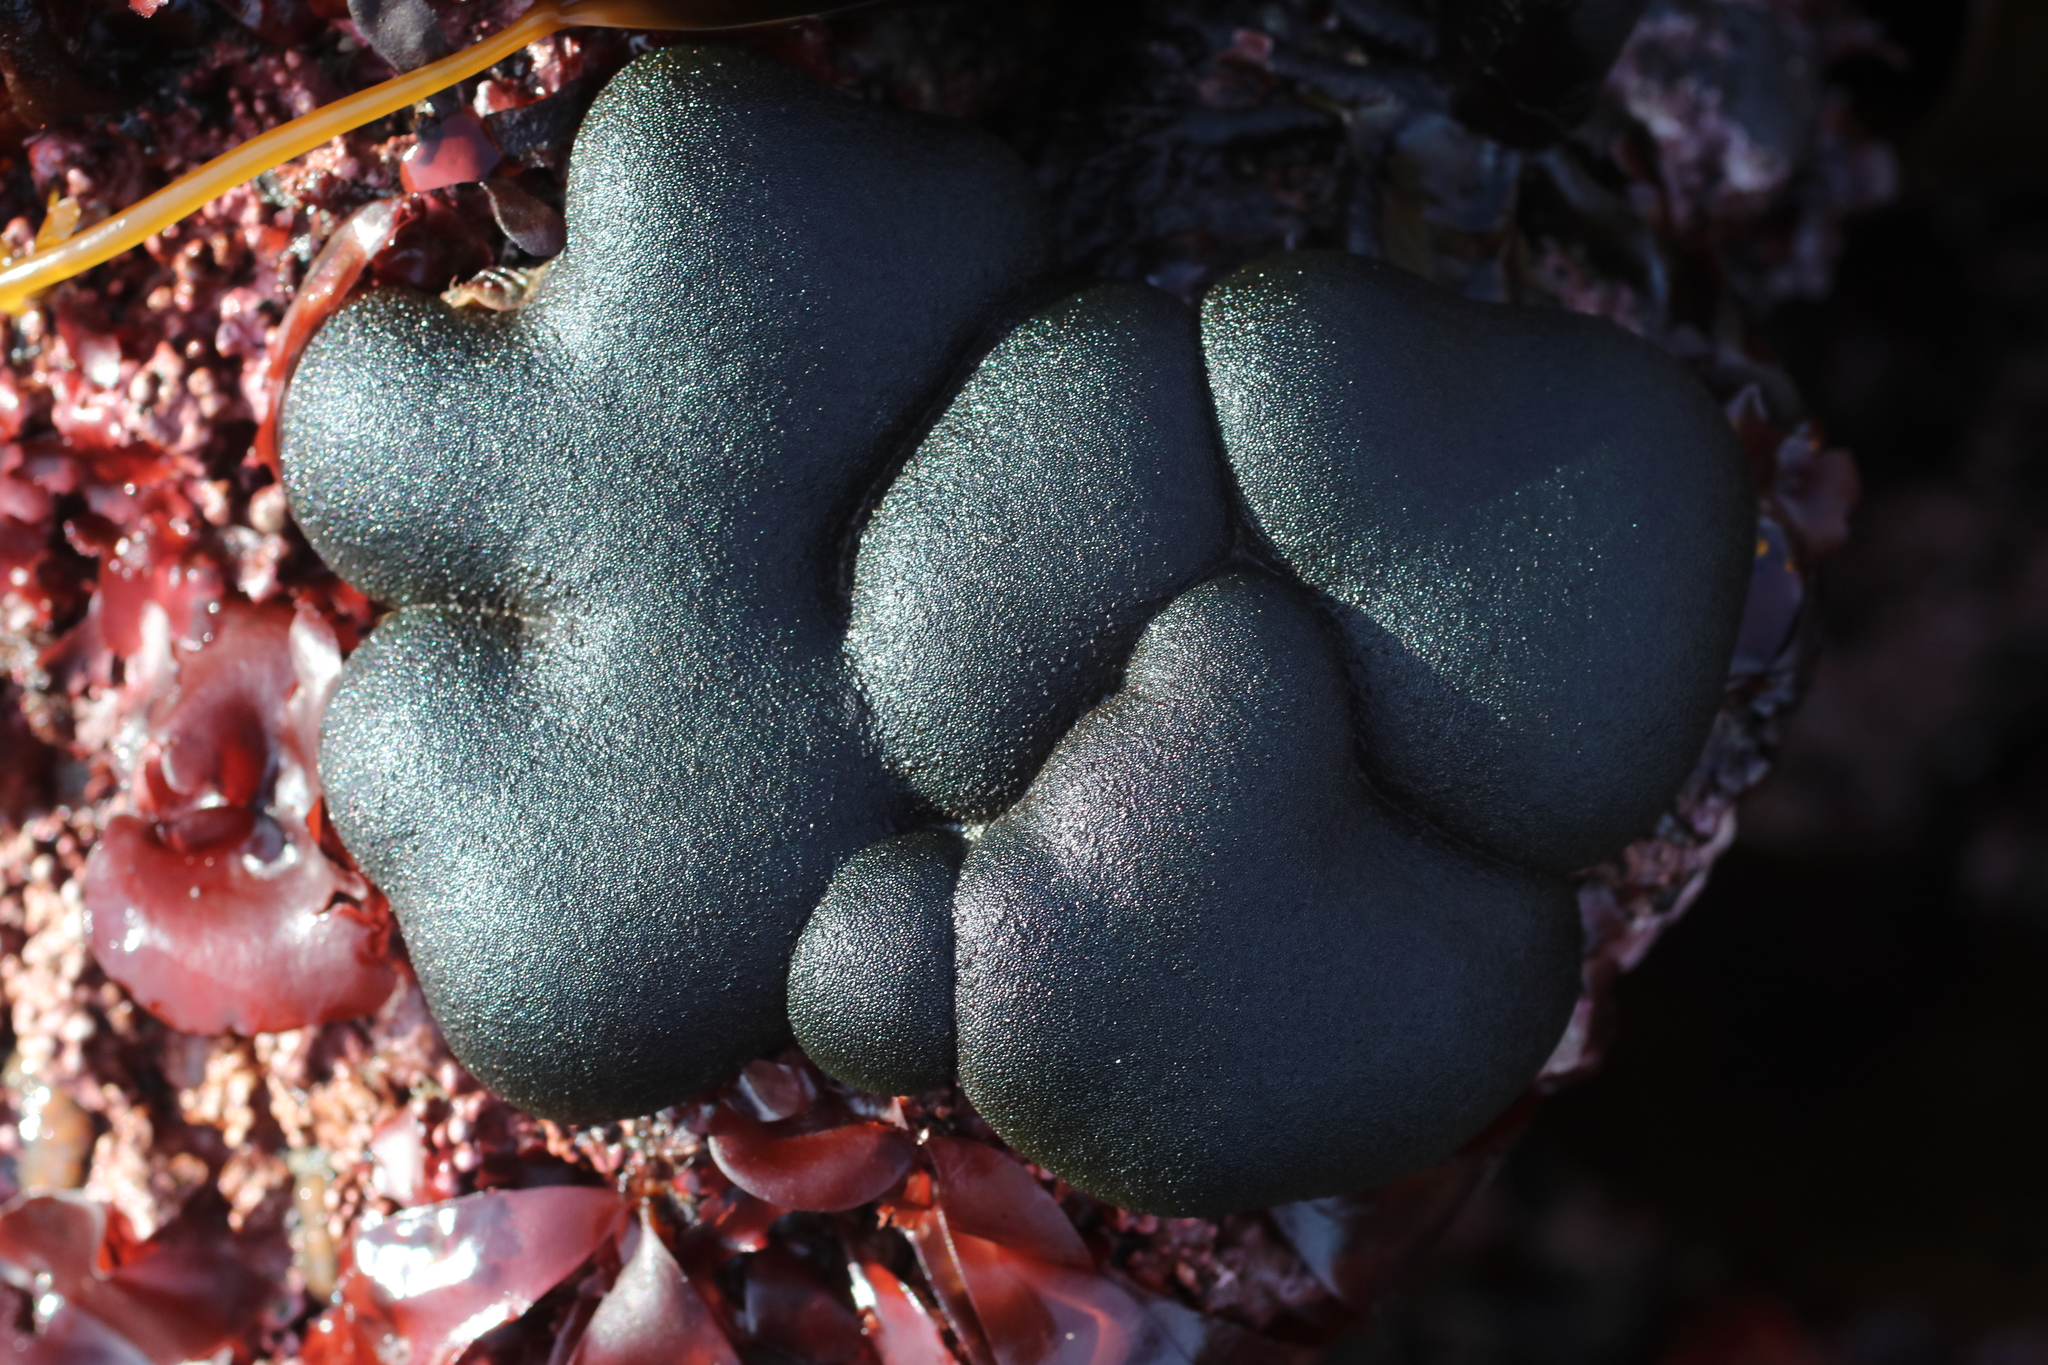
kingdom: Plantae
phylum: Chlorophyta
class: Ulvophyceae
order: Bryopsidales
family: Codiaceae
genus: Codium
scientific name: Codium setchellii
